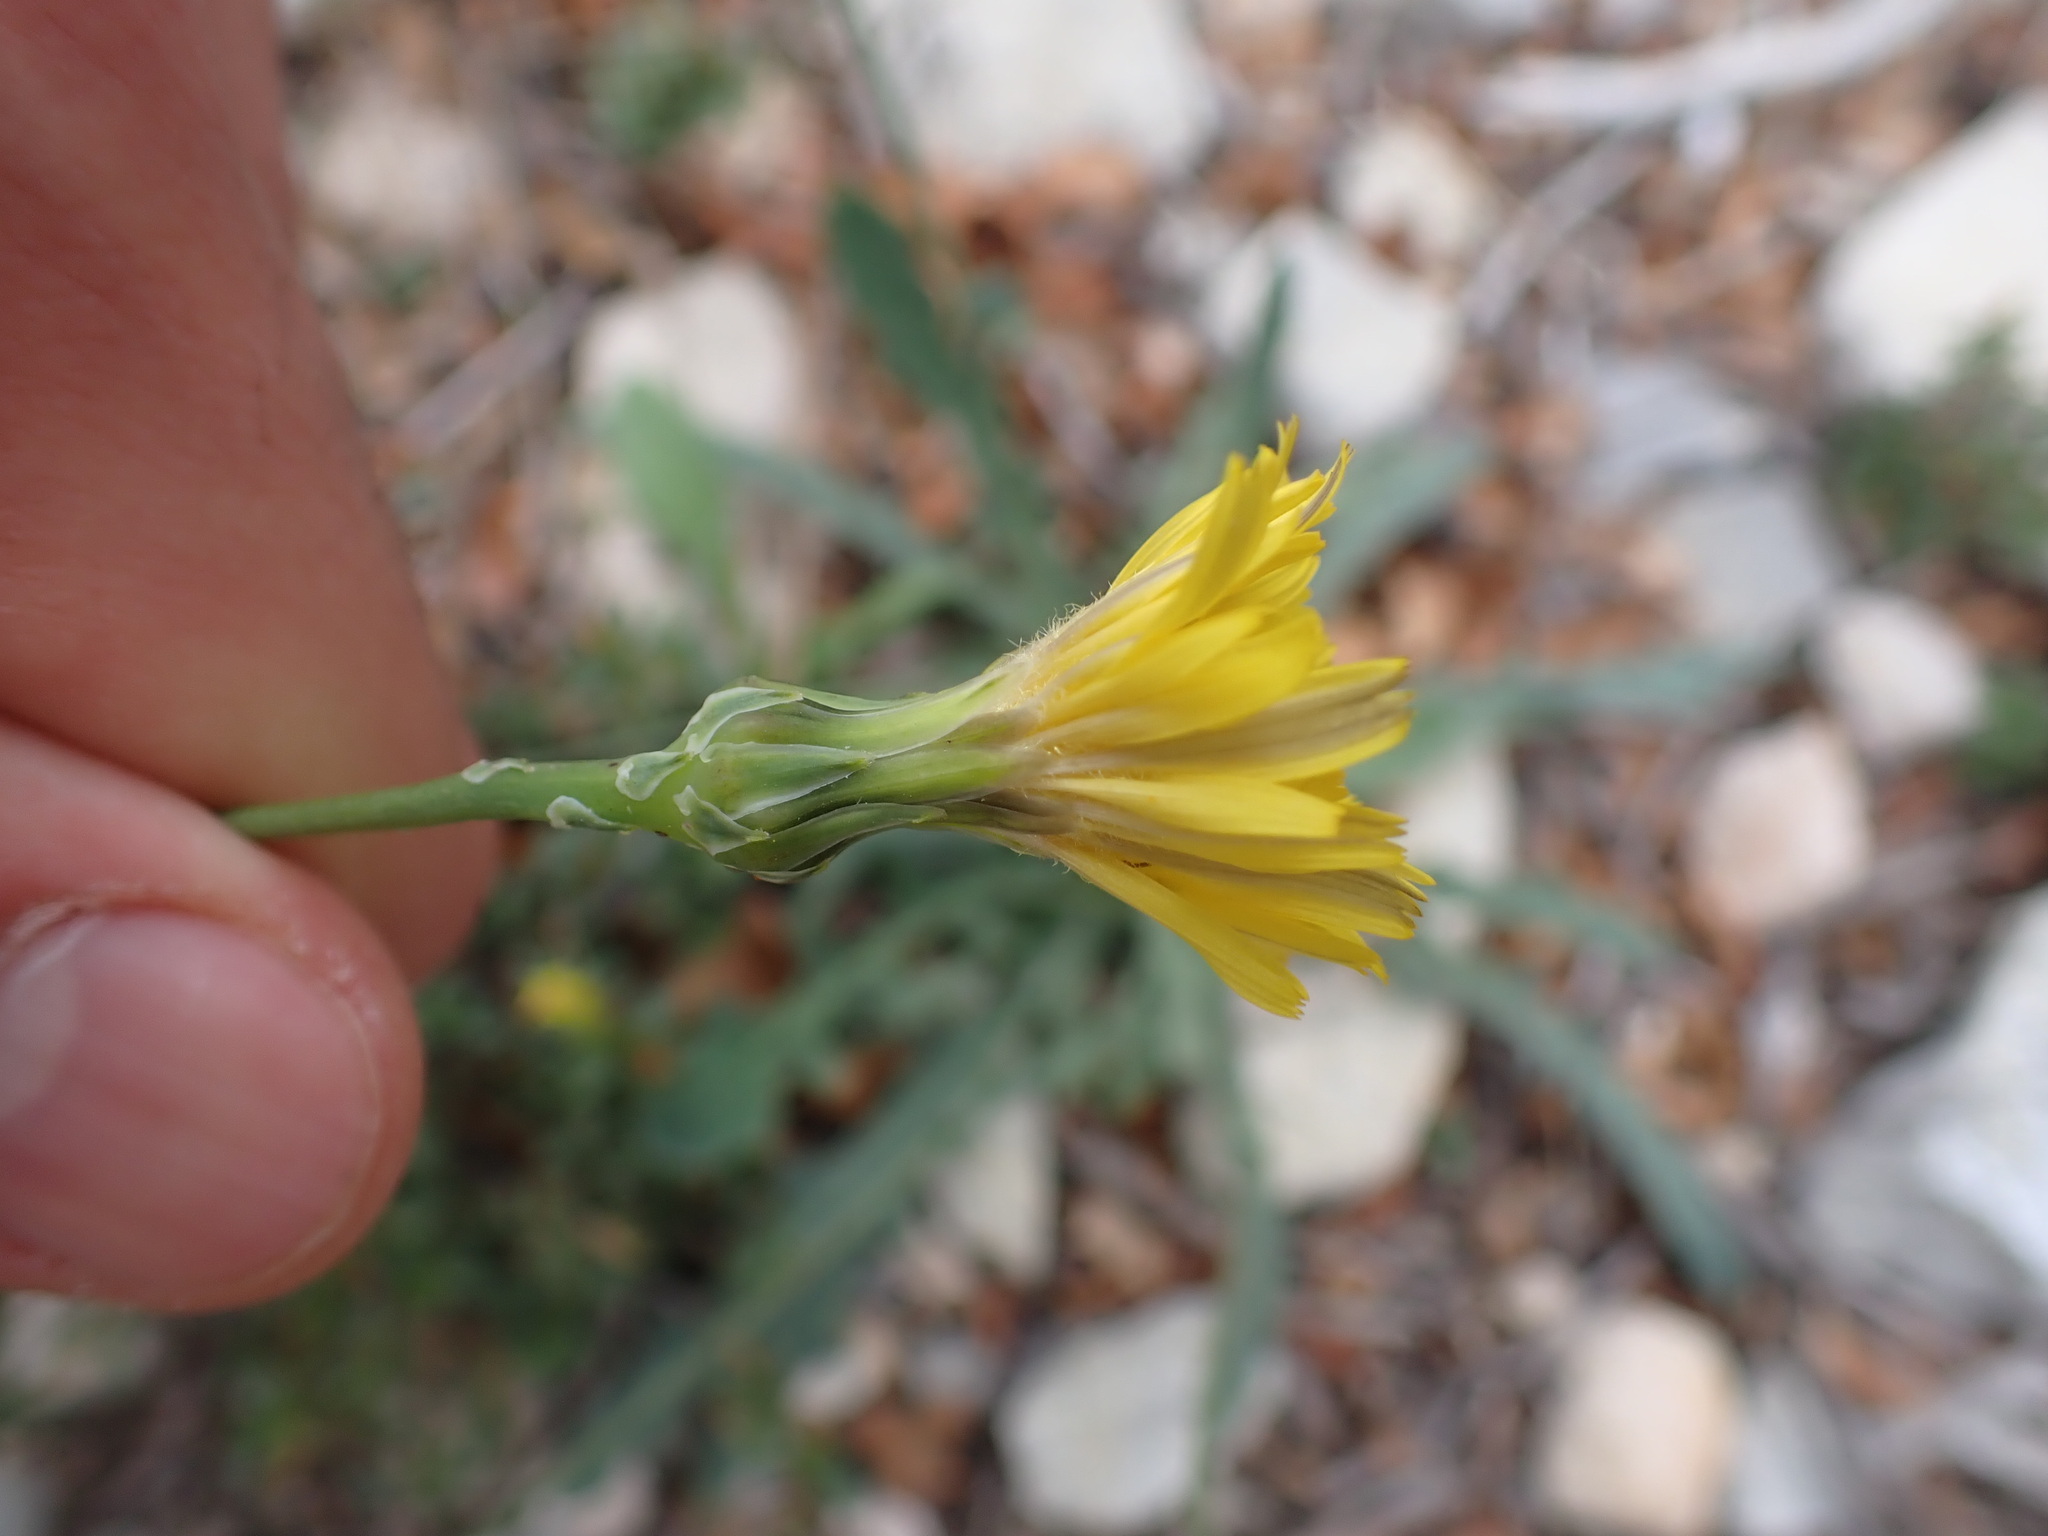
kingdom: Plantae
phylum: Tracheophyta
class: Magnoliopsida
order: Asterales
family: Asteraceae
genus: Reichardia
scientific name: Reichardia picroides
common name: Common brighteyes
